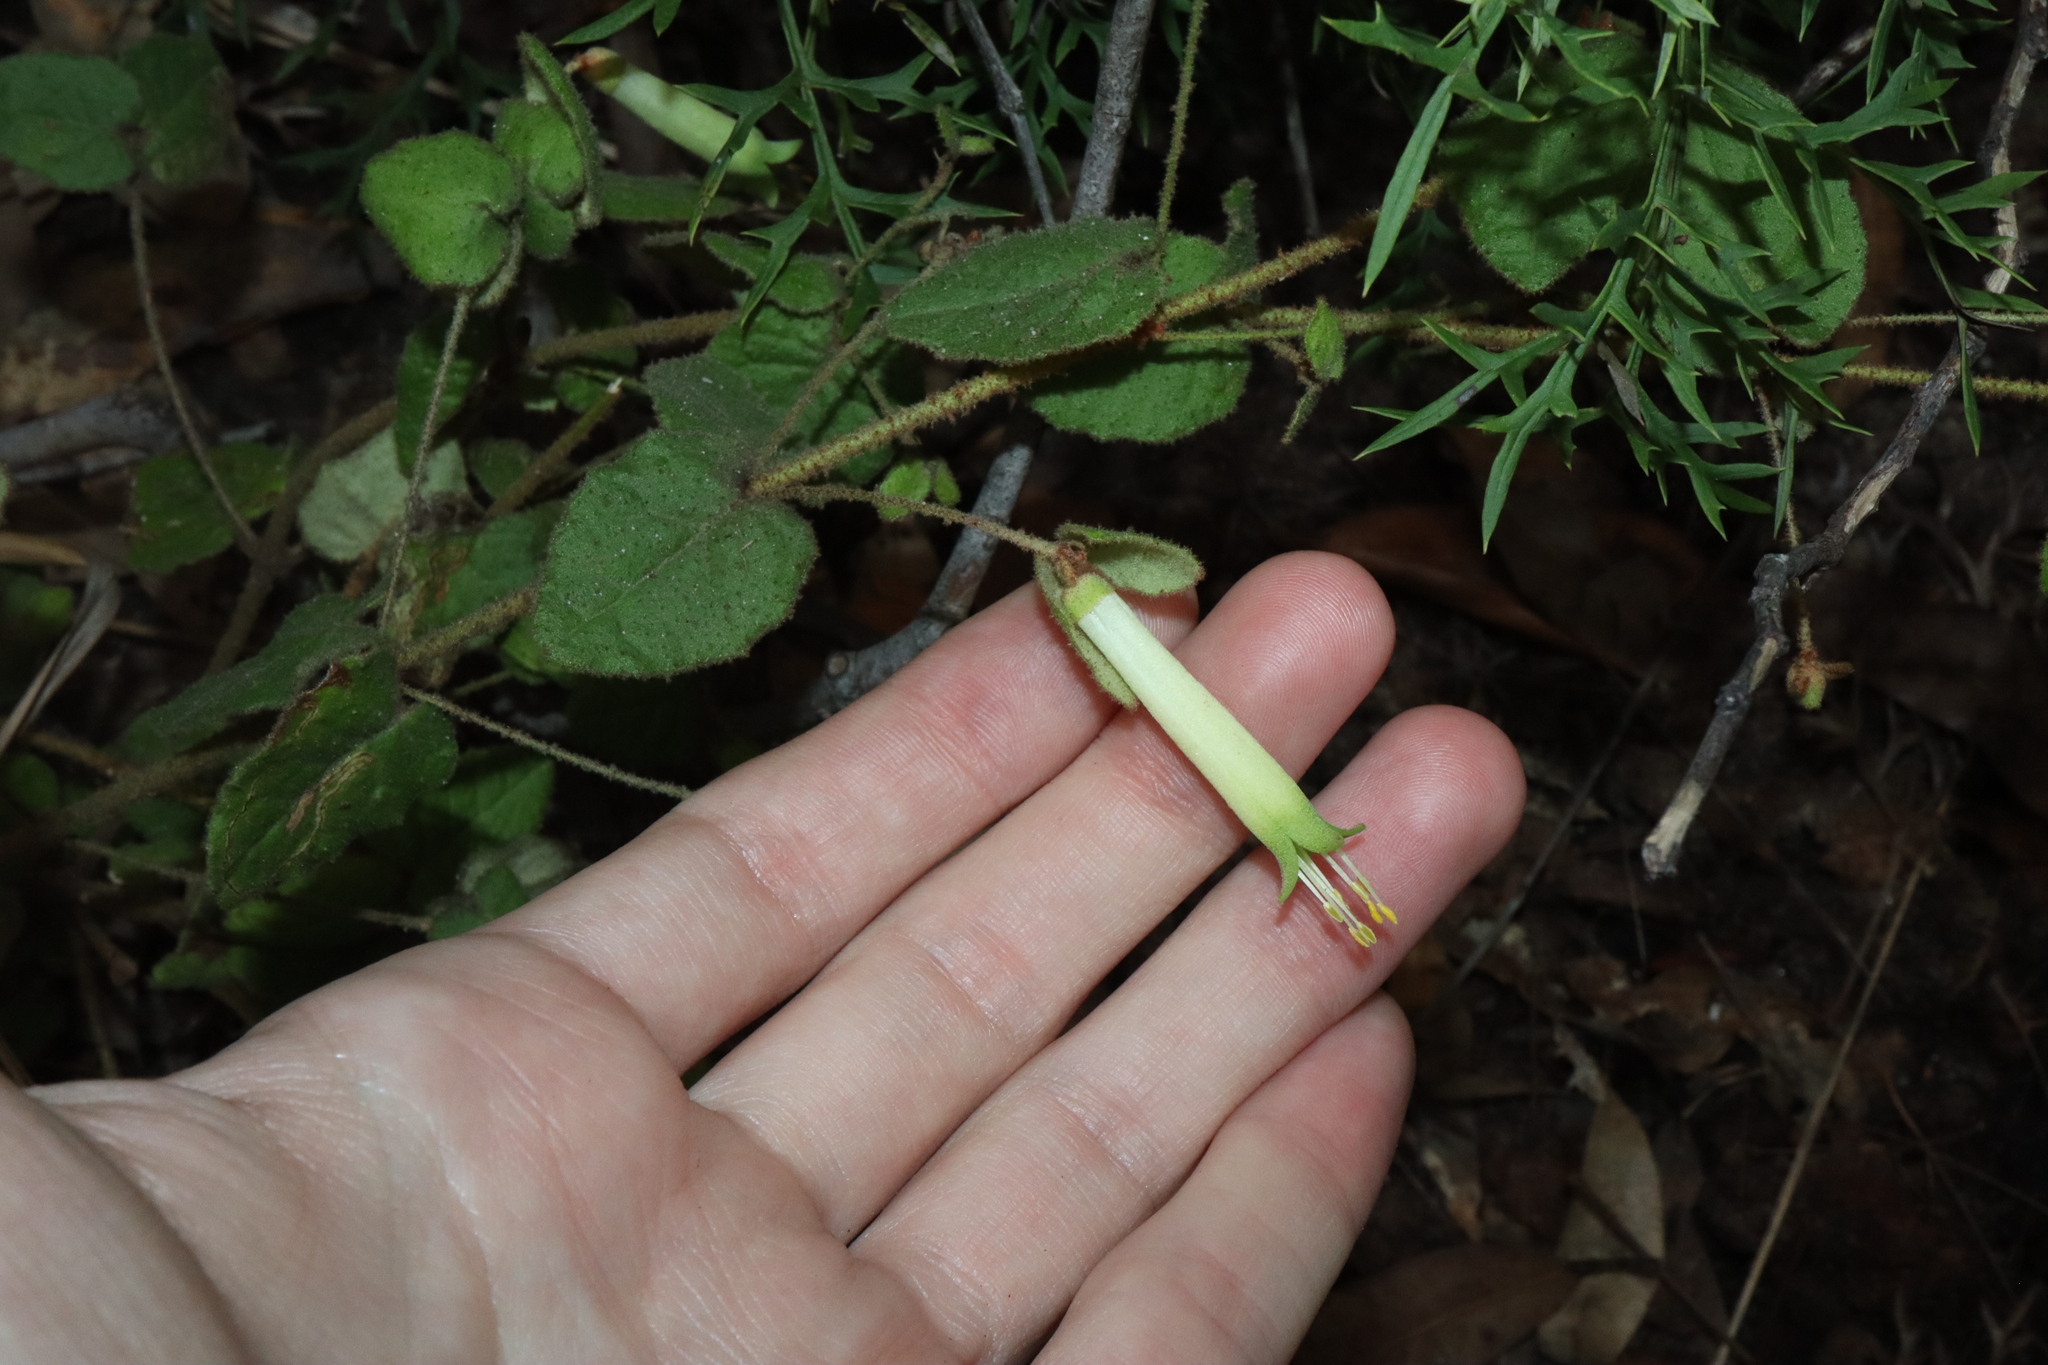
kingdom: Plantae
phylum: Tracheophyta
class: Magnoliopsida
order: Sapindales
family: Rutaceae
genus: Correa
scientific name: Correa reflexa
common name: Common correa
